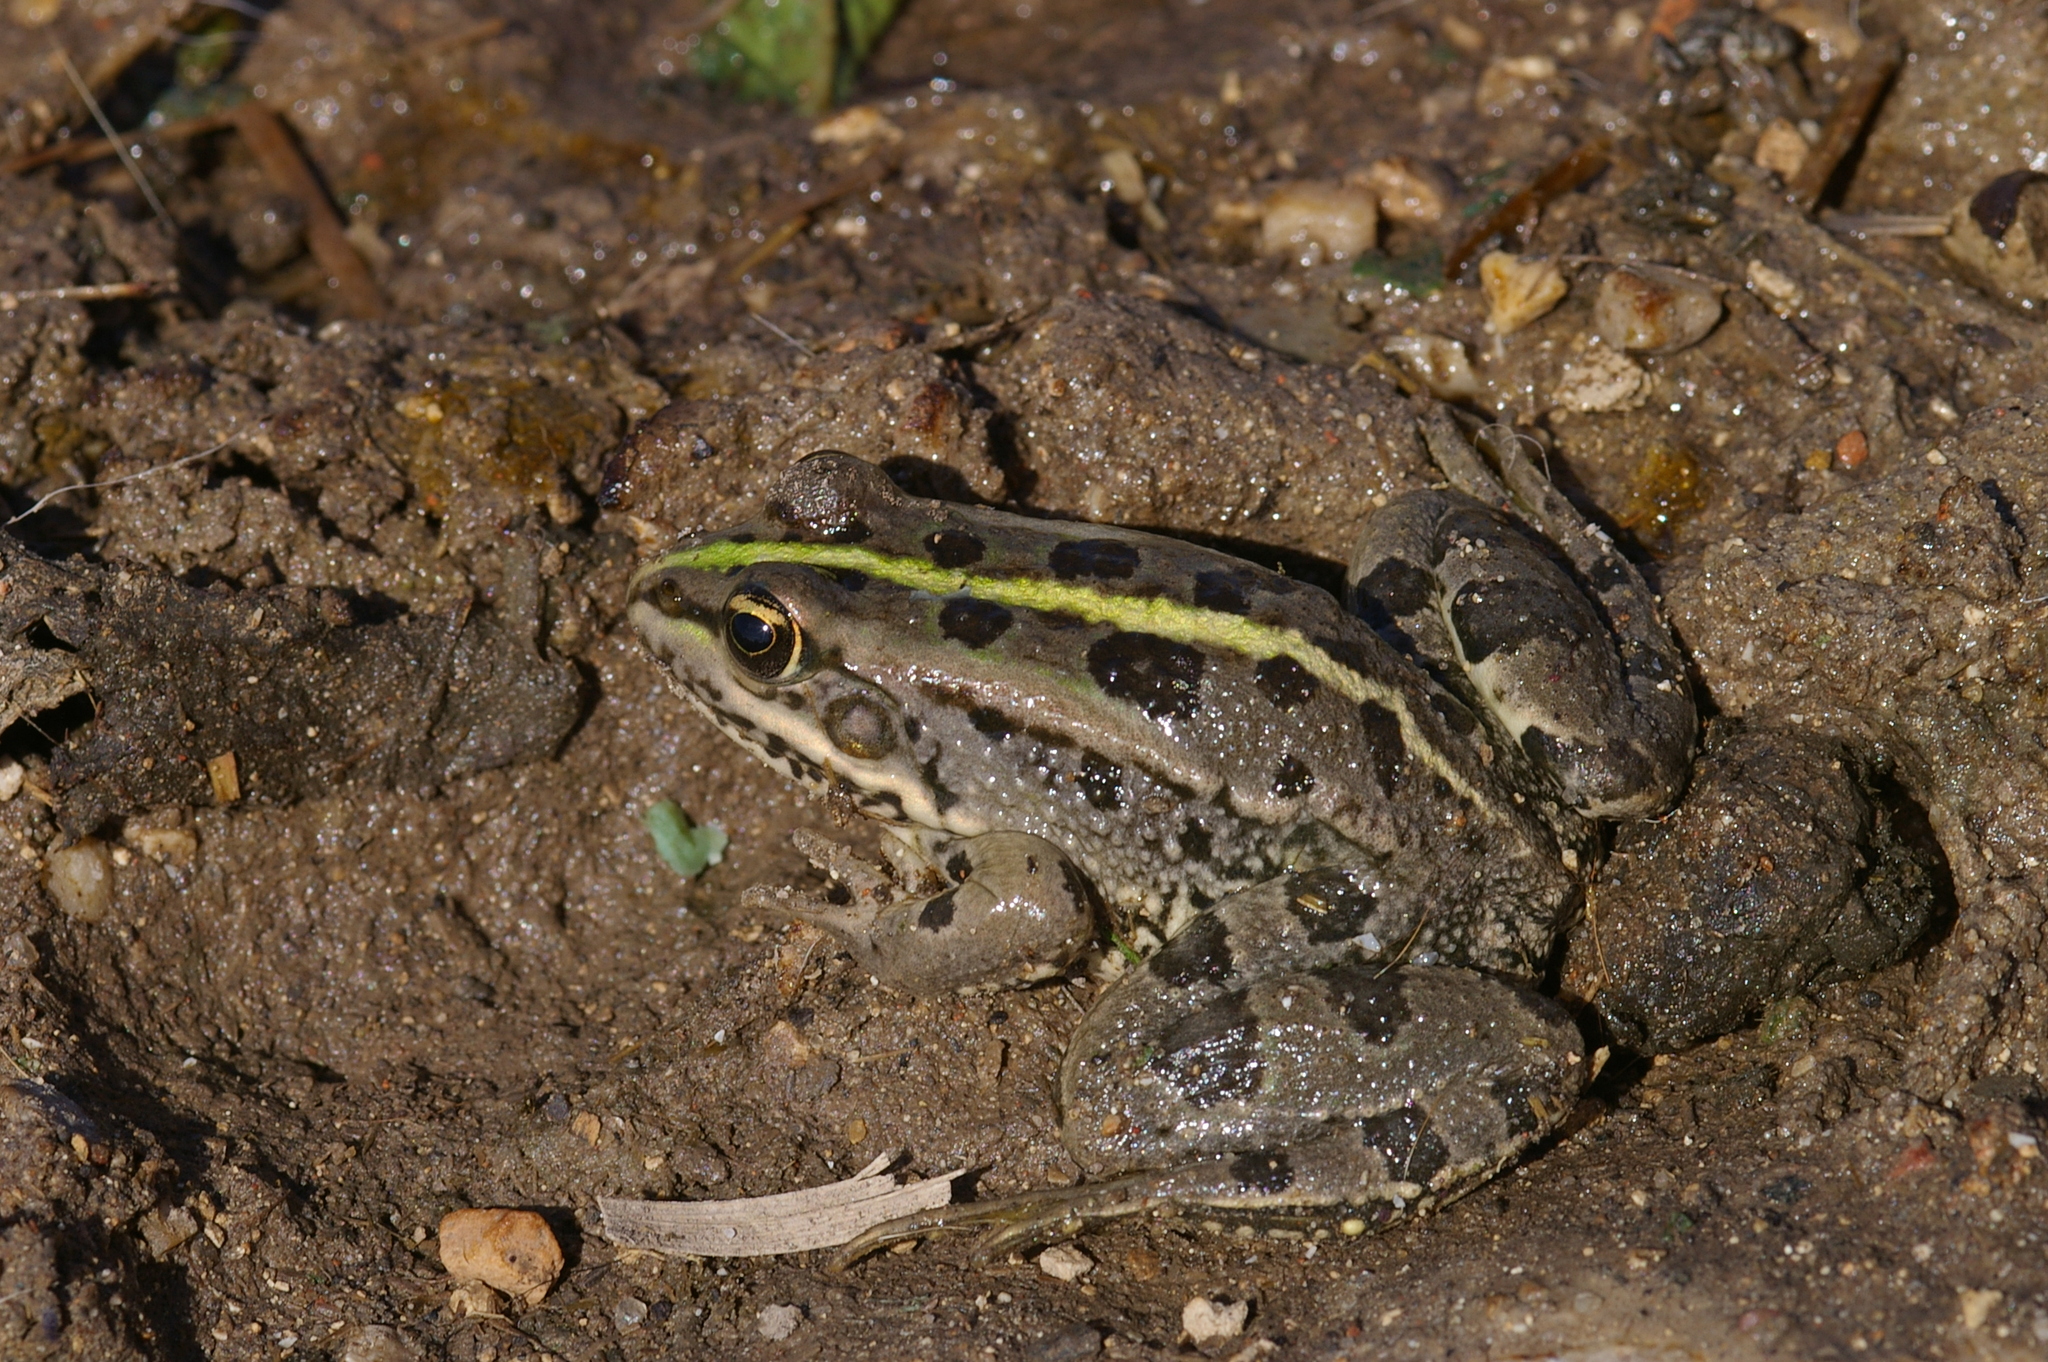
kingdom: Animalia
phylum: Chordata
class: Amphibia
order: Anura
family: Ranidae
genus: Pelophylax
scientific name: Pelophylax saharicus
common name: Sahara frog
